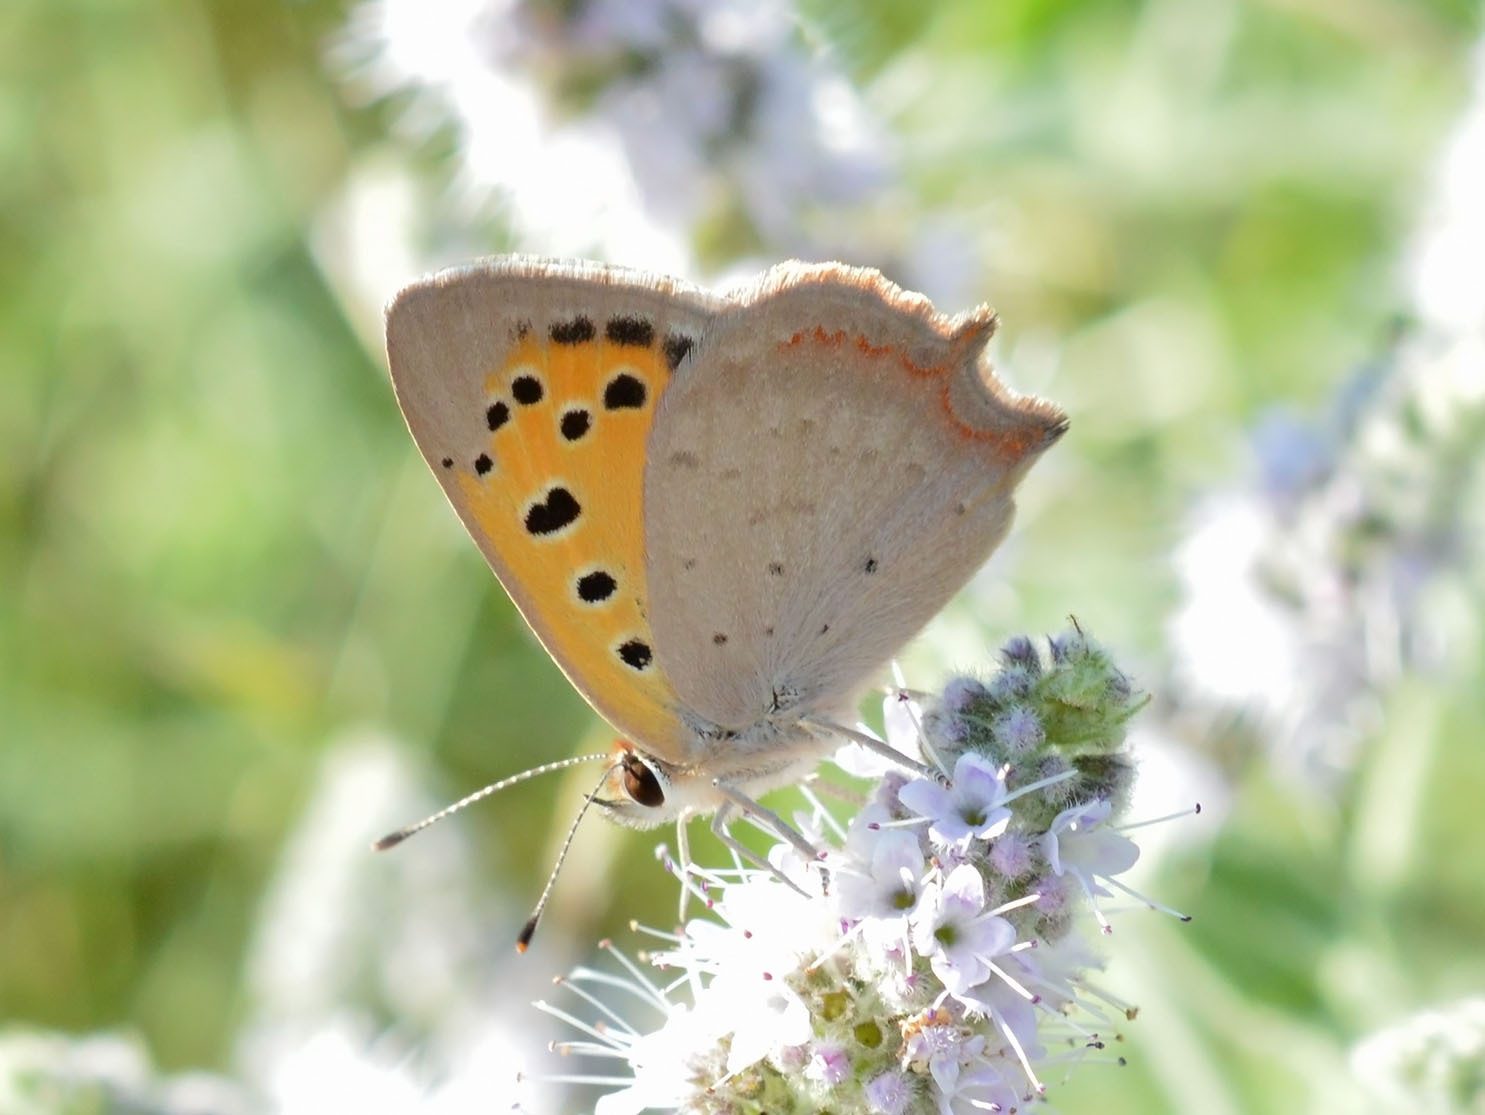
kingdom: Animalia
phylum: Arthropoda
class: Insecta
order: Lepidoptera
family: Lycaenidae
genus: Lycaena
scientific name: Lycaena phlaeas
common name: Small copper
